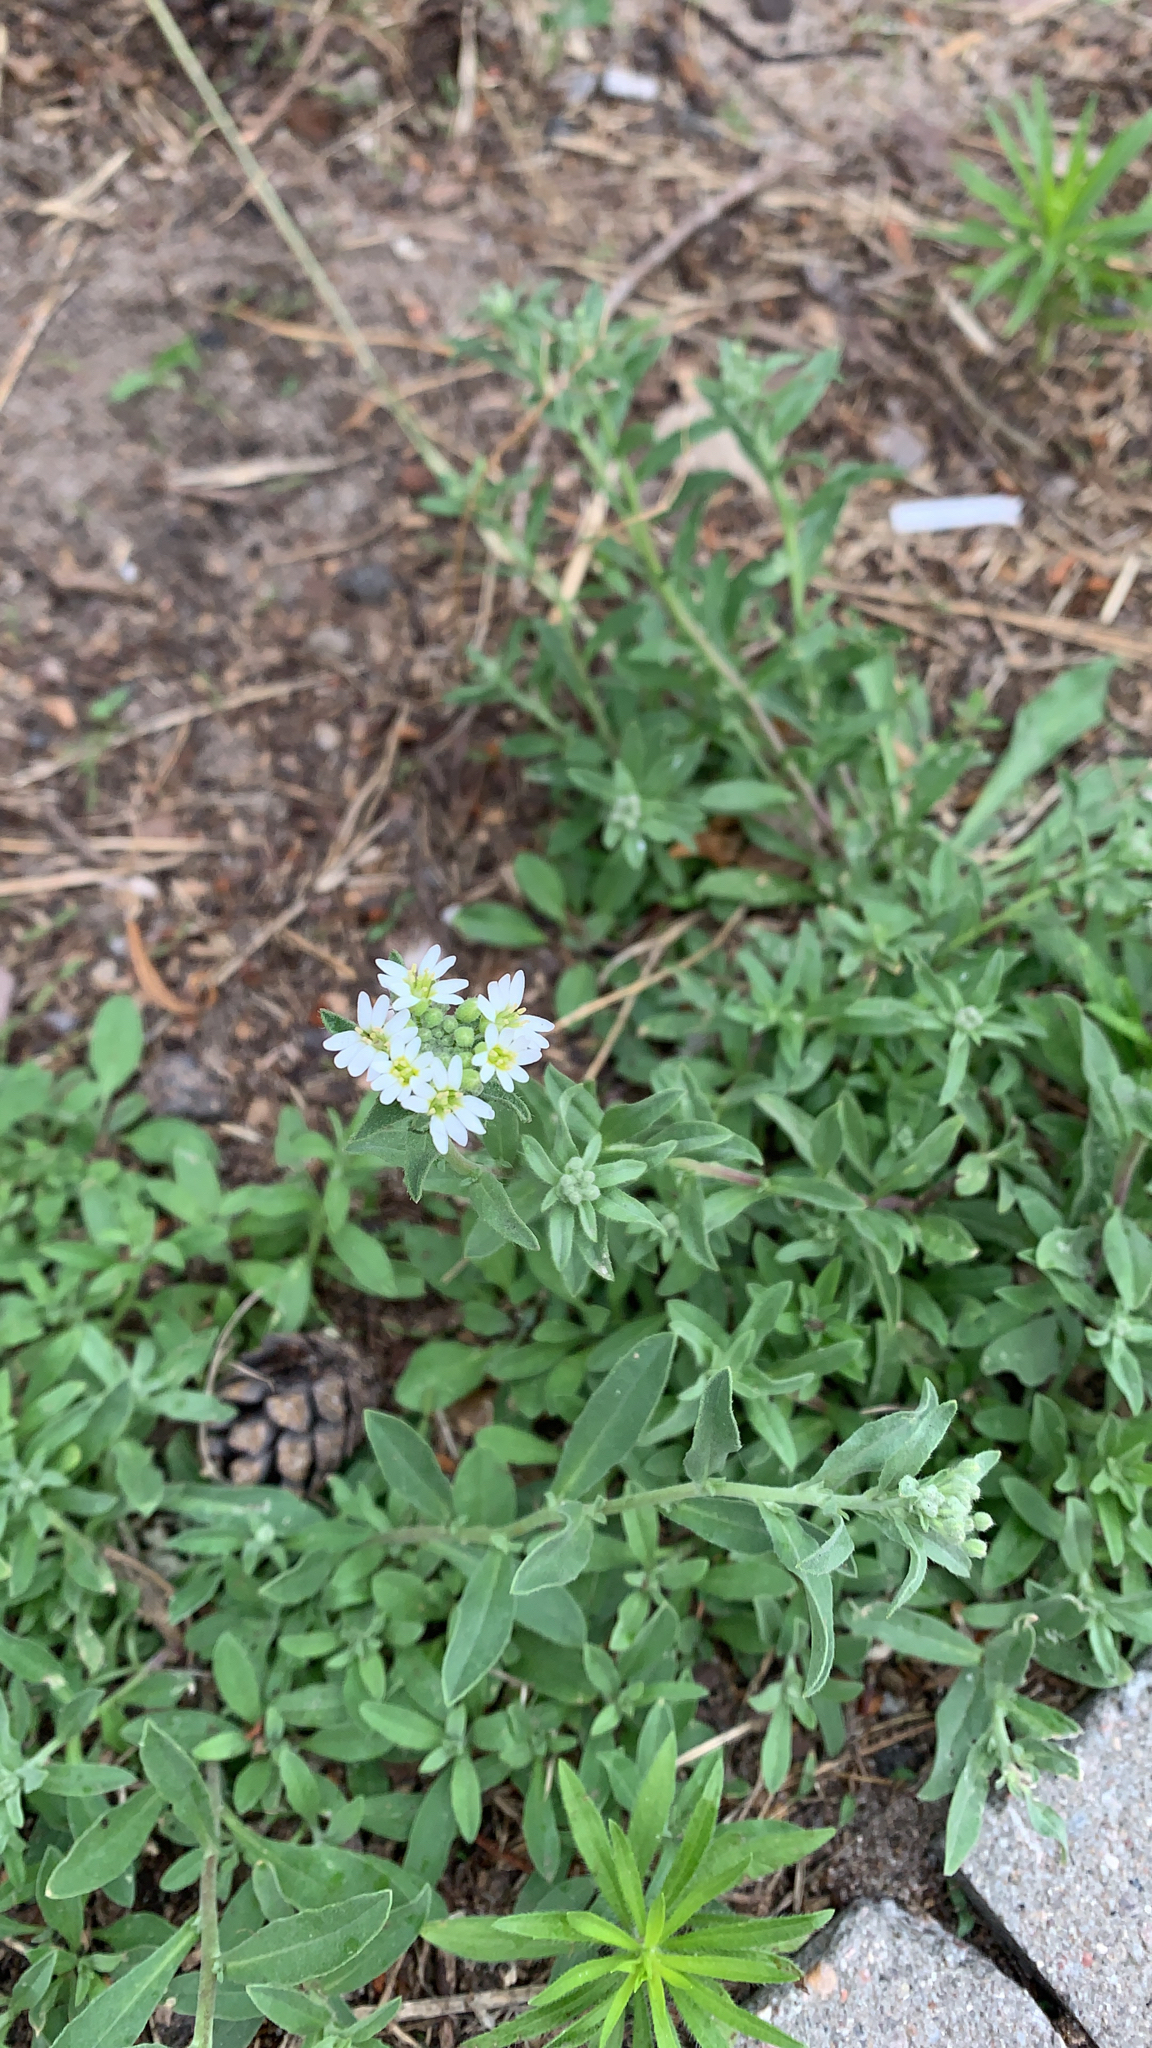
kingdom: Plantae
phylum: Tracheophyta
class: Magnoliopsida
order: Brassicales
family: Brassicaceae
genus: Berteroa
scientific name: Berteroa incana
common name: Hoary alison
